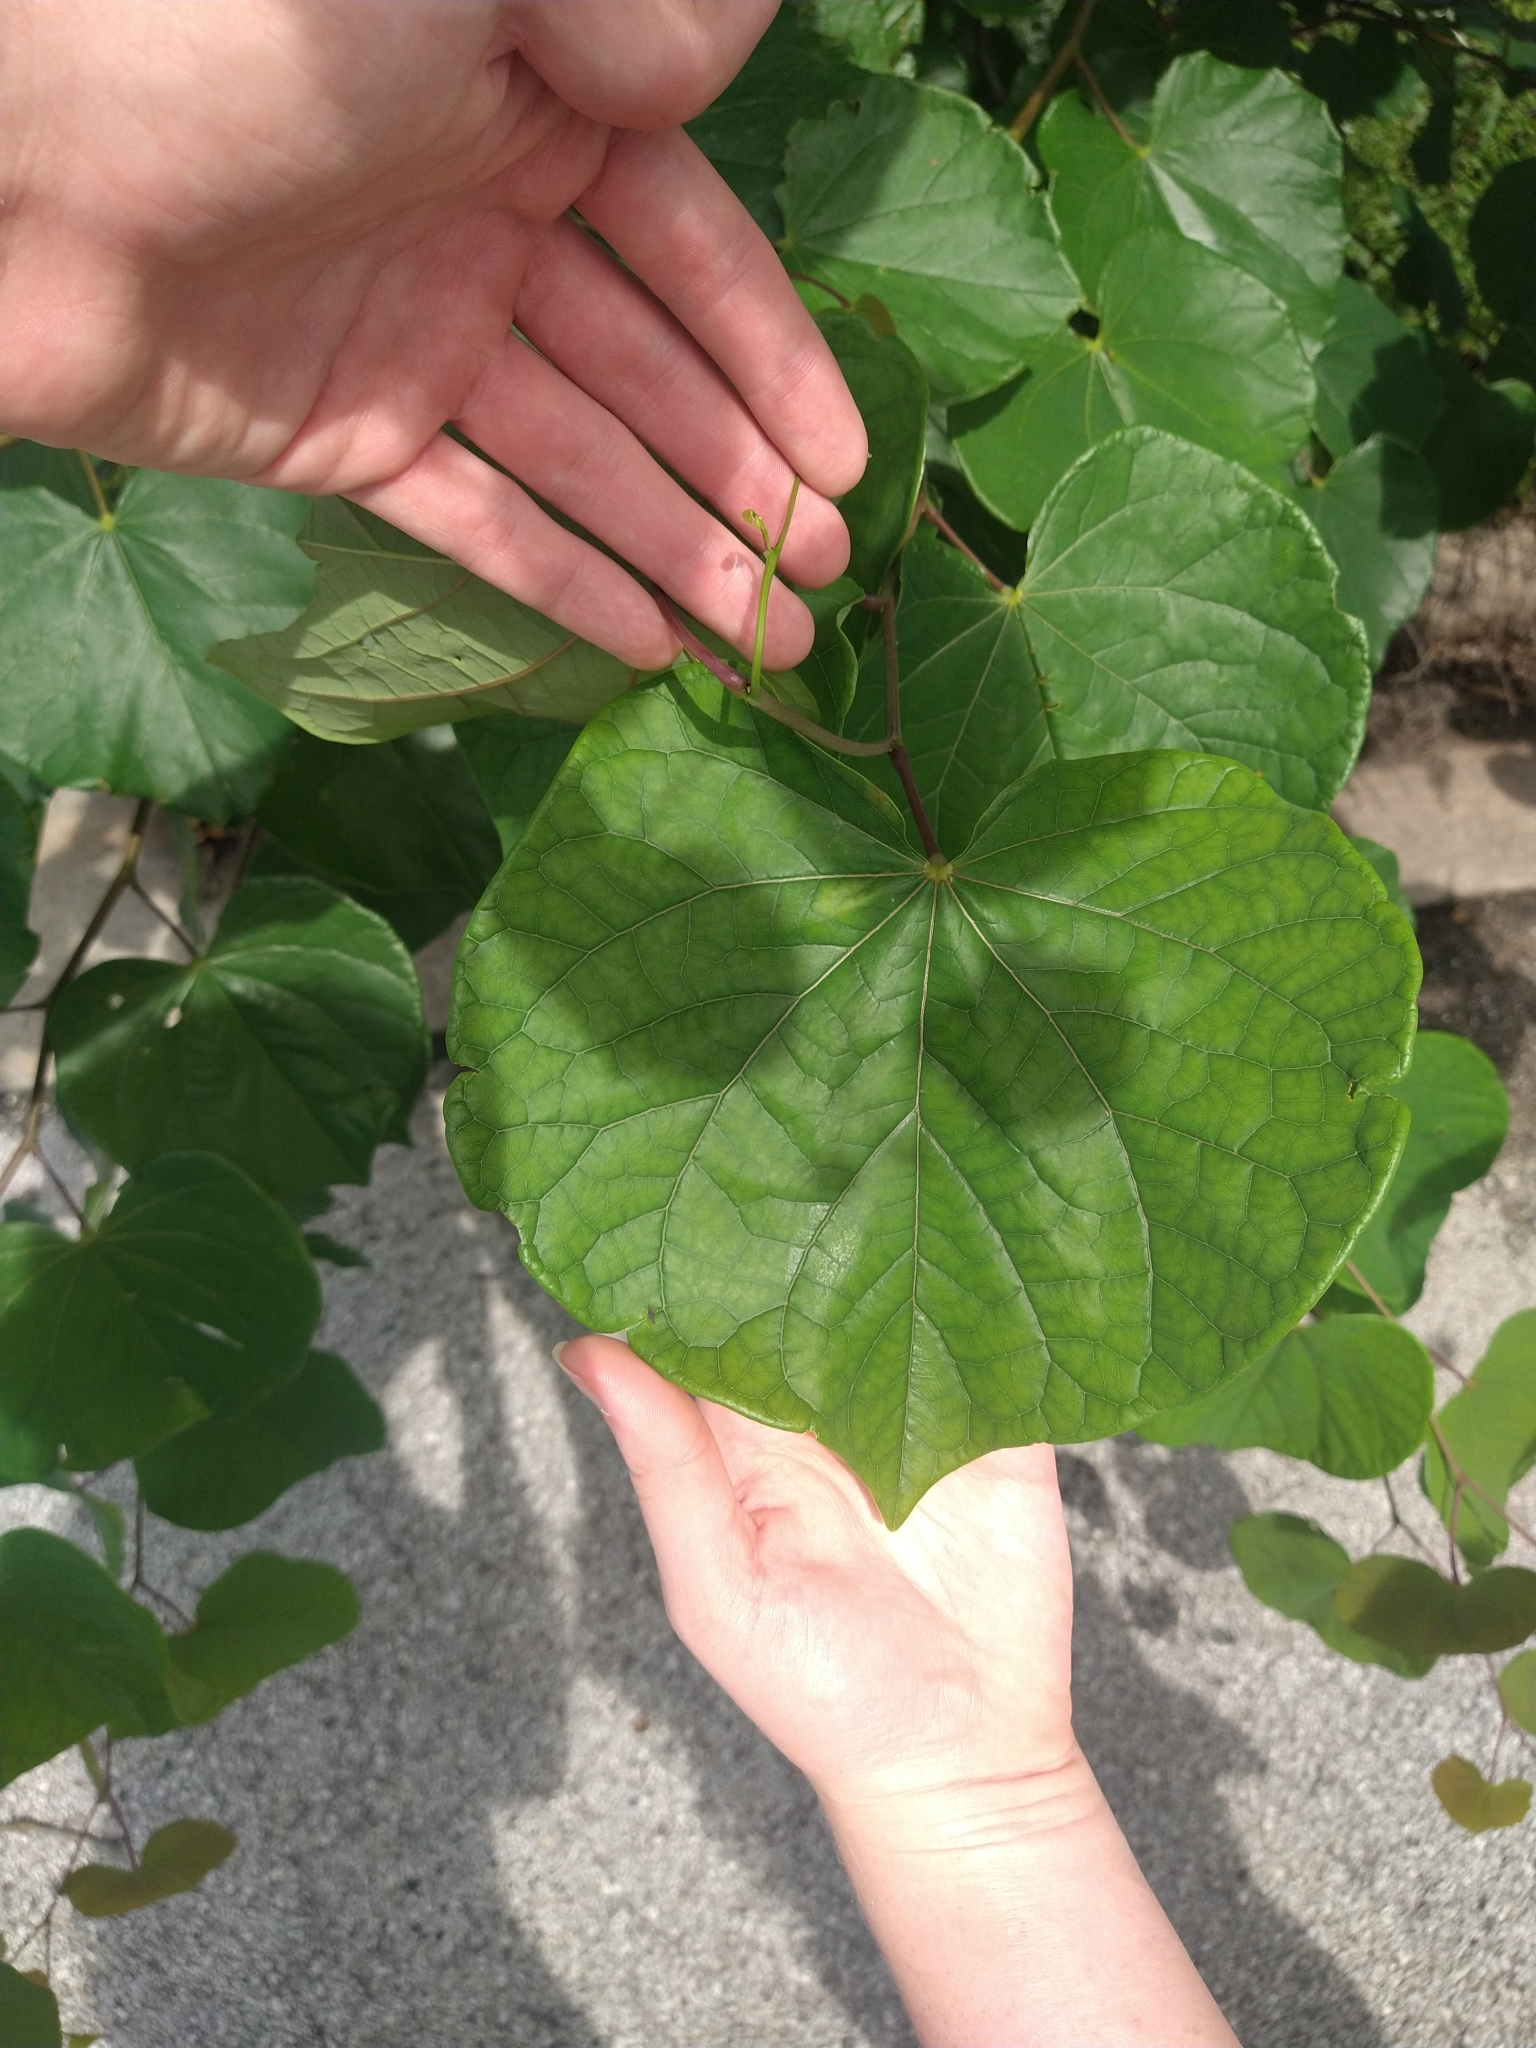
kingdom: Plantae
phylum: Tracheophyta
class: Magnoliopsida
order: Fabales
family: Fabaceae
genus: Cercis
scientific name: Cercis canadensis
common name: Eastern redbud
